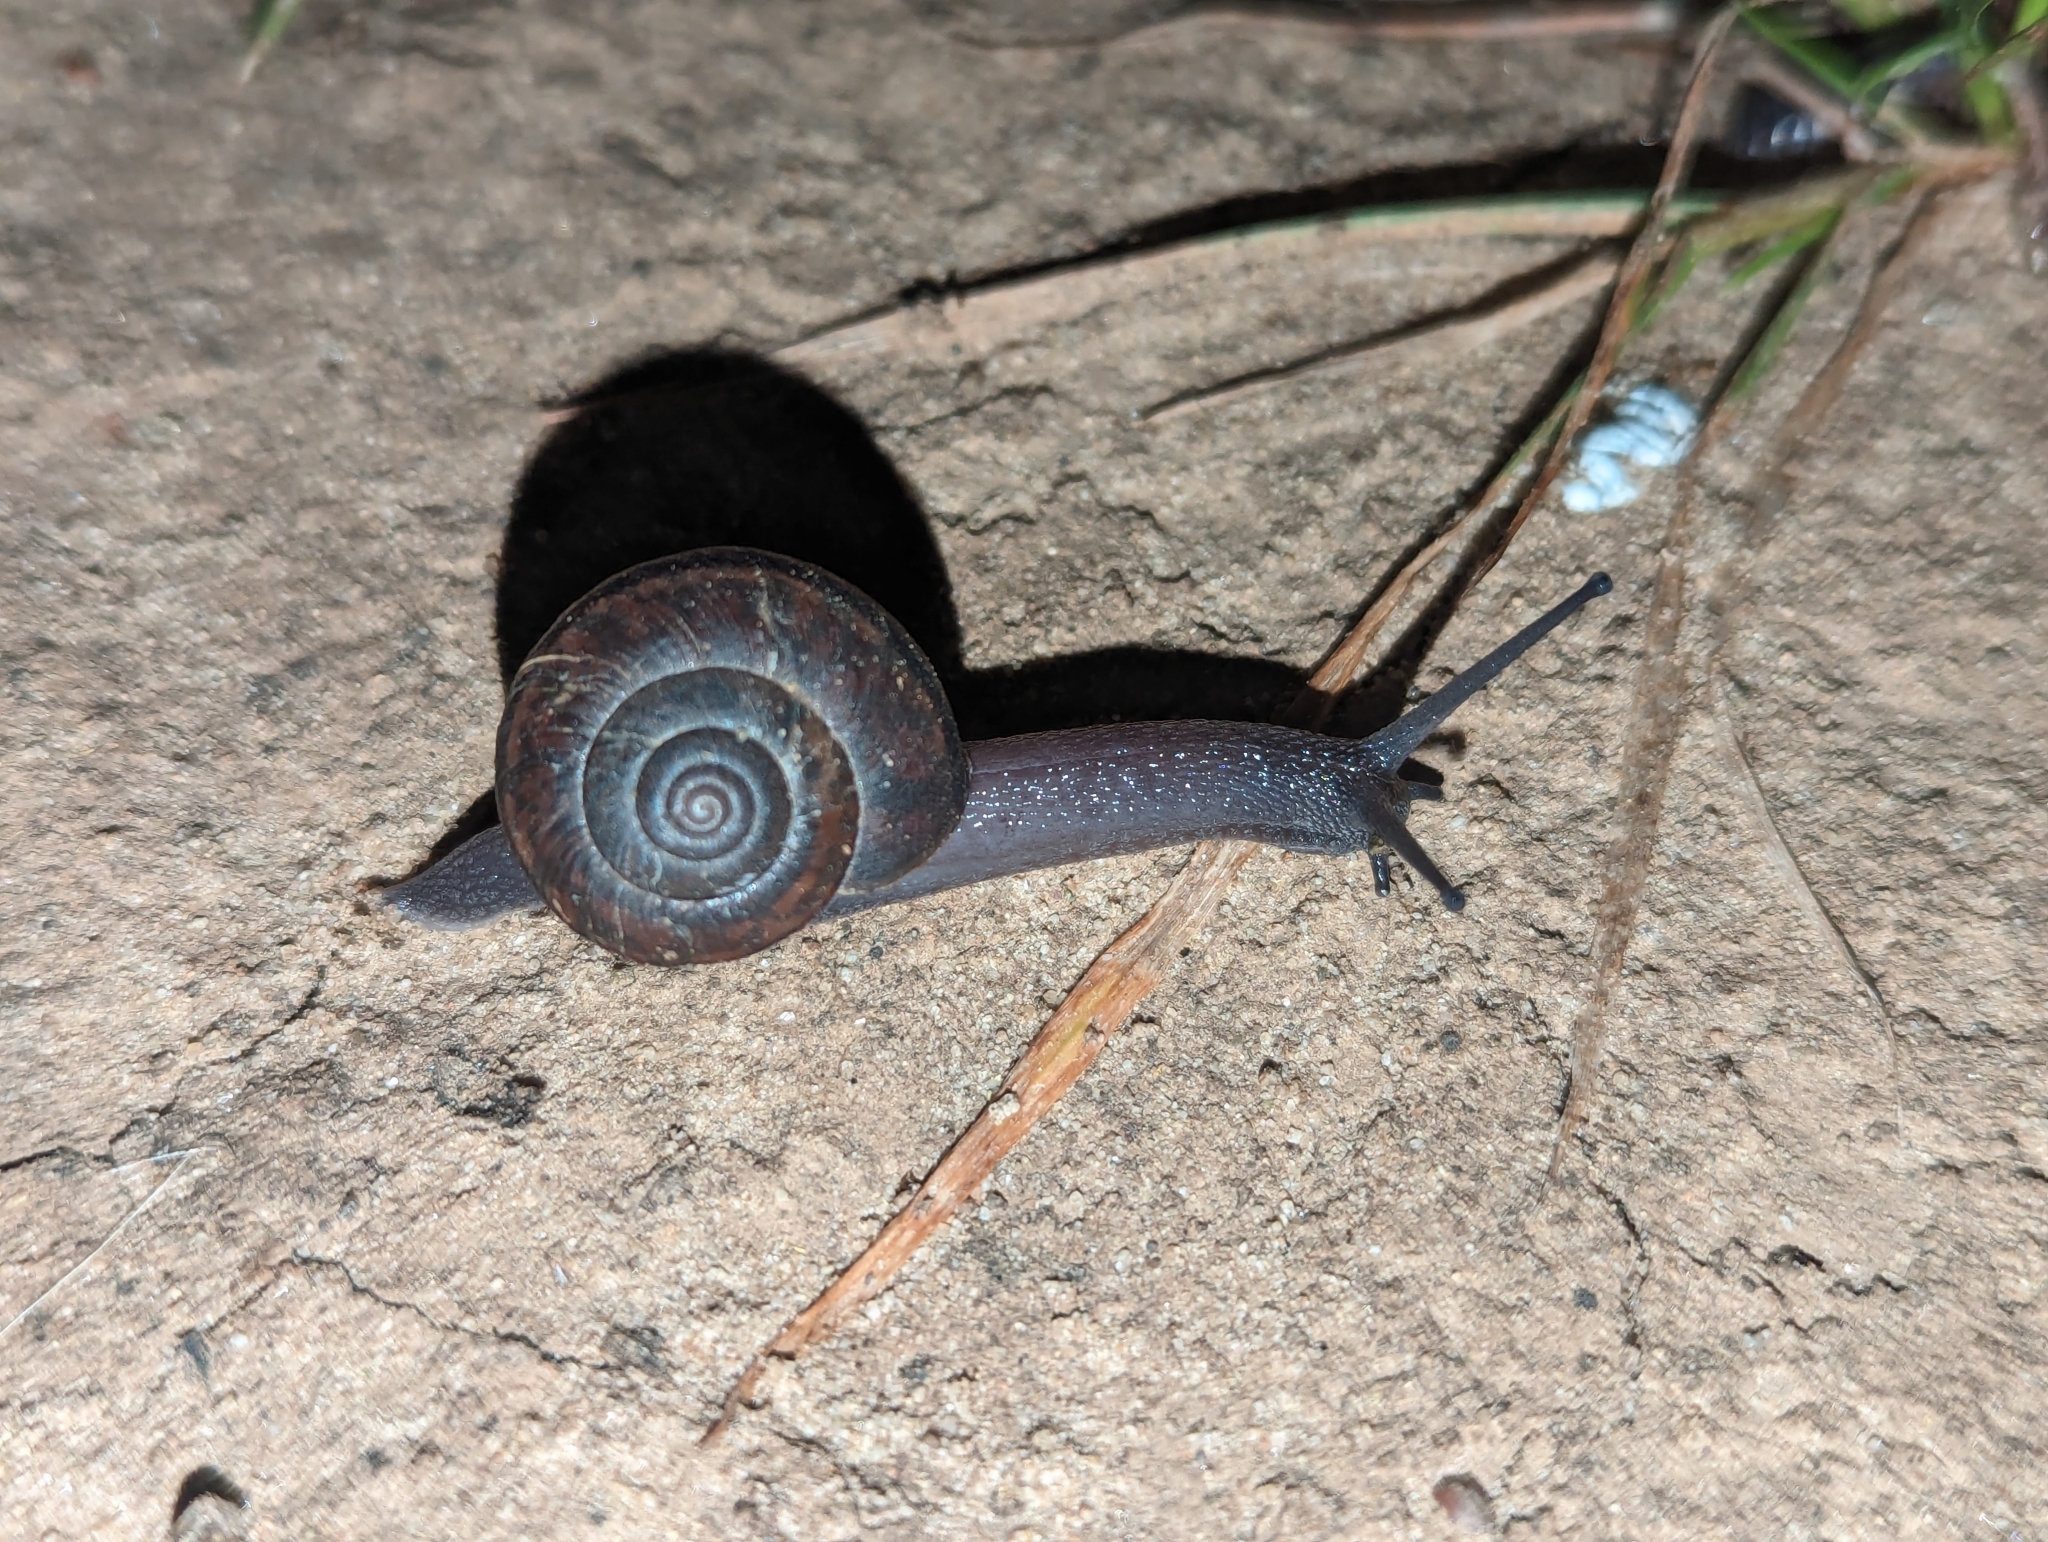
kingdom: Animalia
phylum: Mollusca
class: Gastropoda
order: Stylommatophora
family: Xanthonychidae
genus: Helminthoglypta
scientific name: Helminthoglypta phlyctaena
